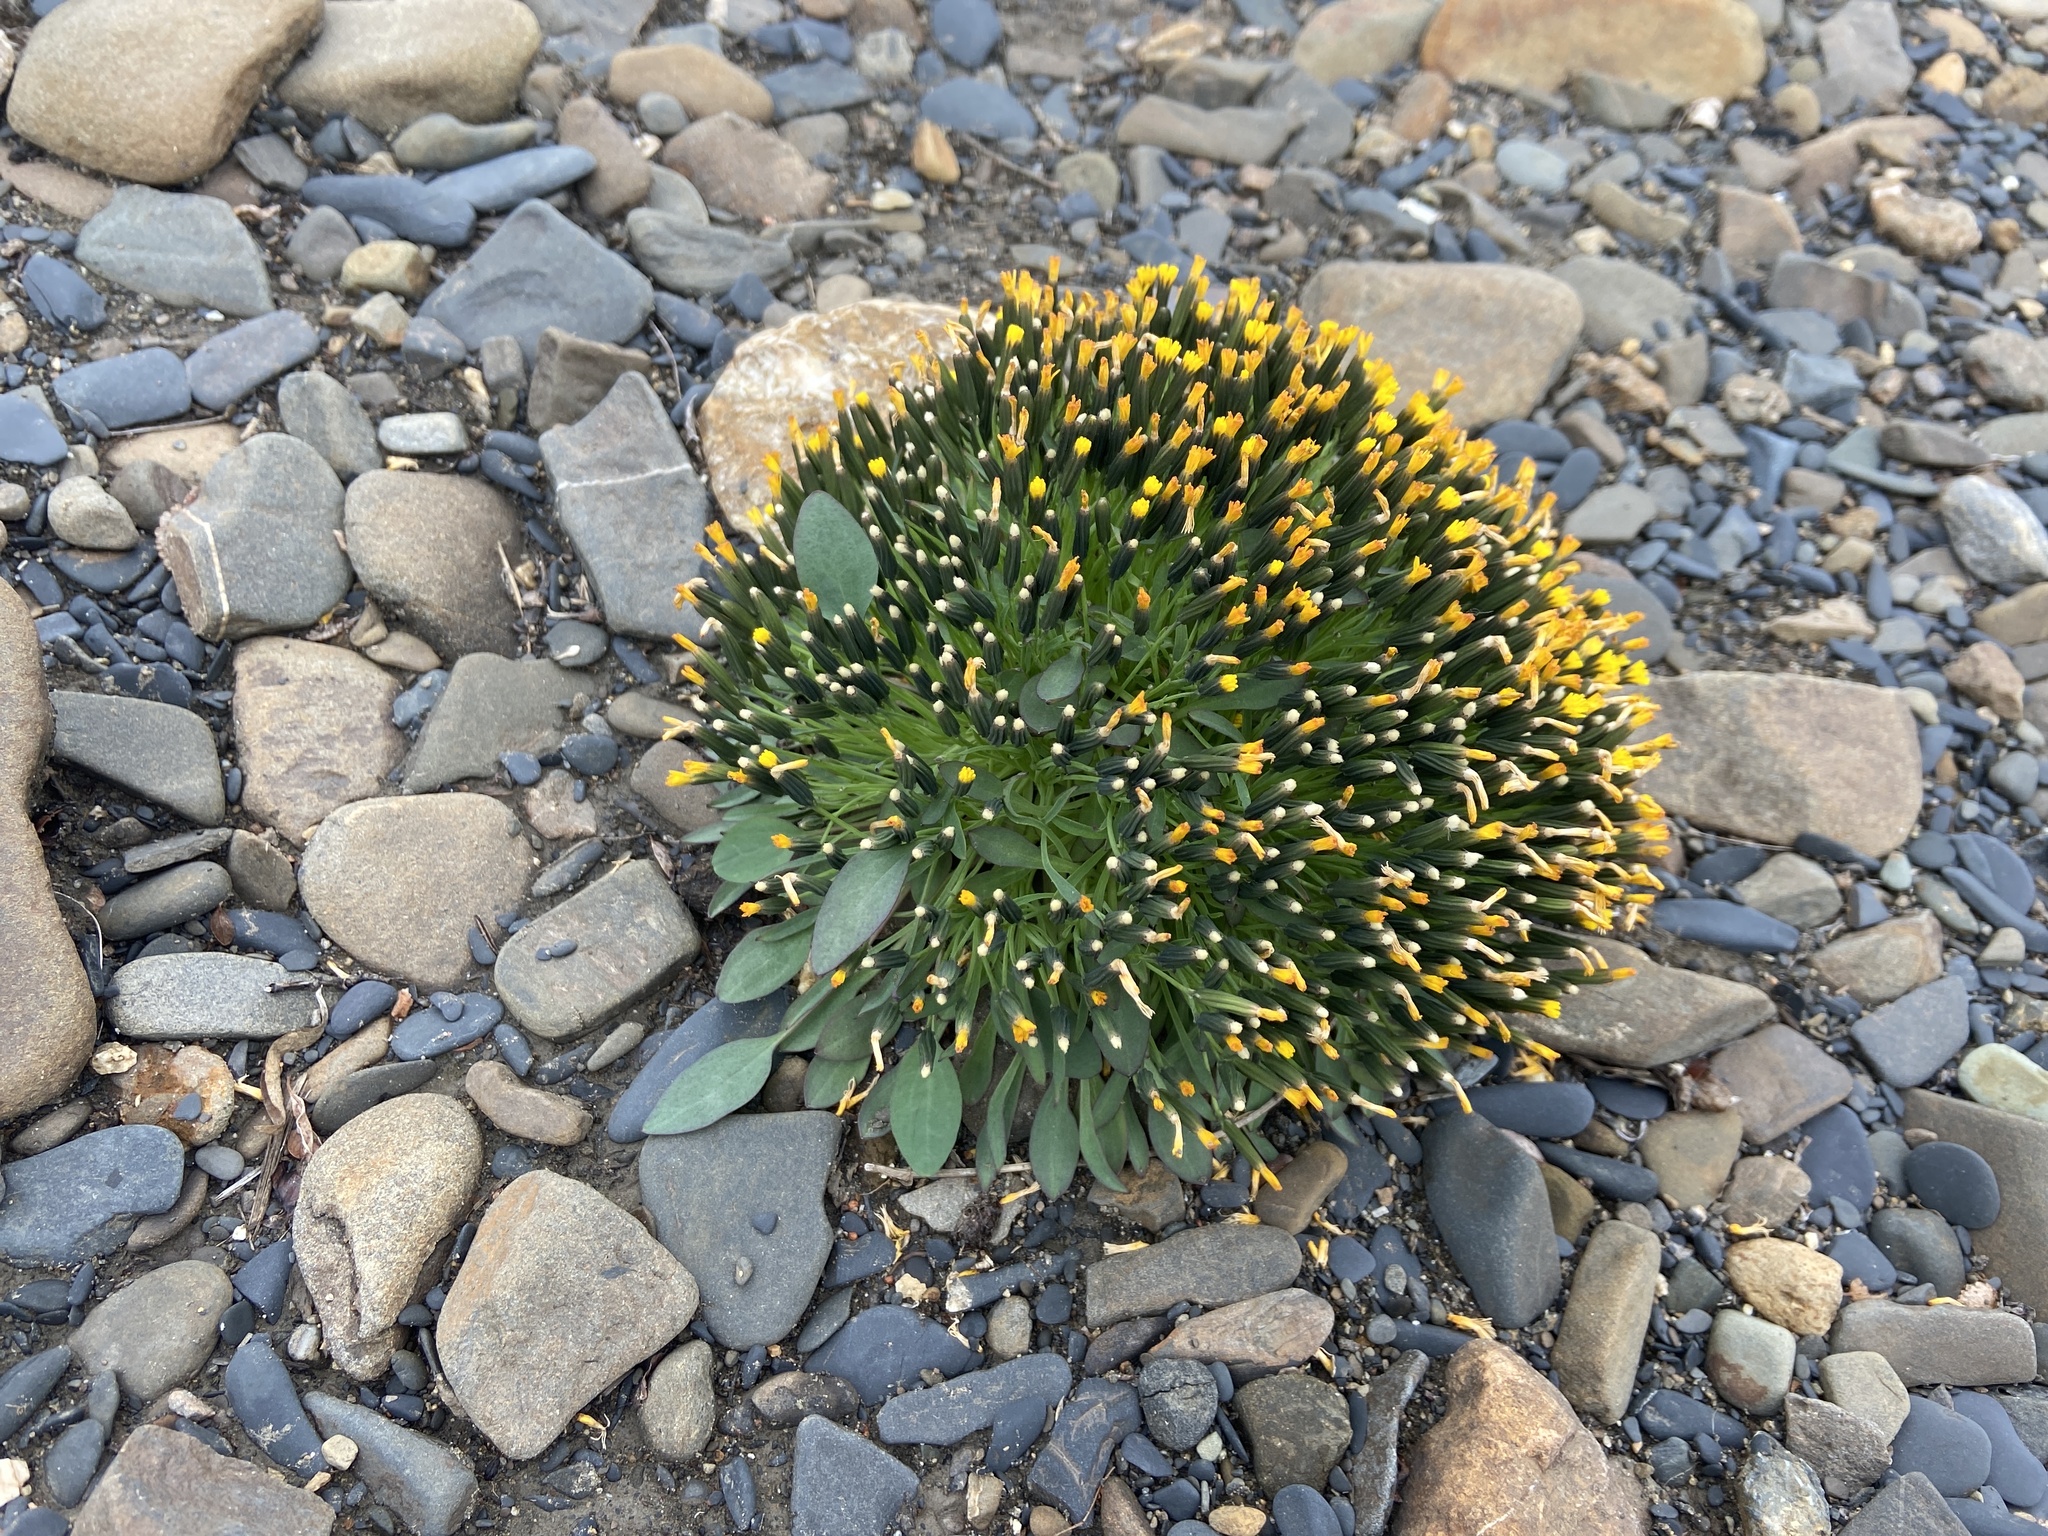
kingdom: Plantae
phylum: Tracheophyta
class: Magnoliopsida
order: Asterales
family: Asteraceae
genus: Askellia
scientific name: Askellia pygmaea
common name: Dwarf alpine hawksbeard
